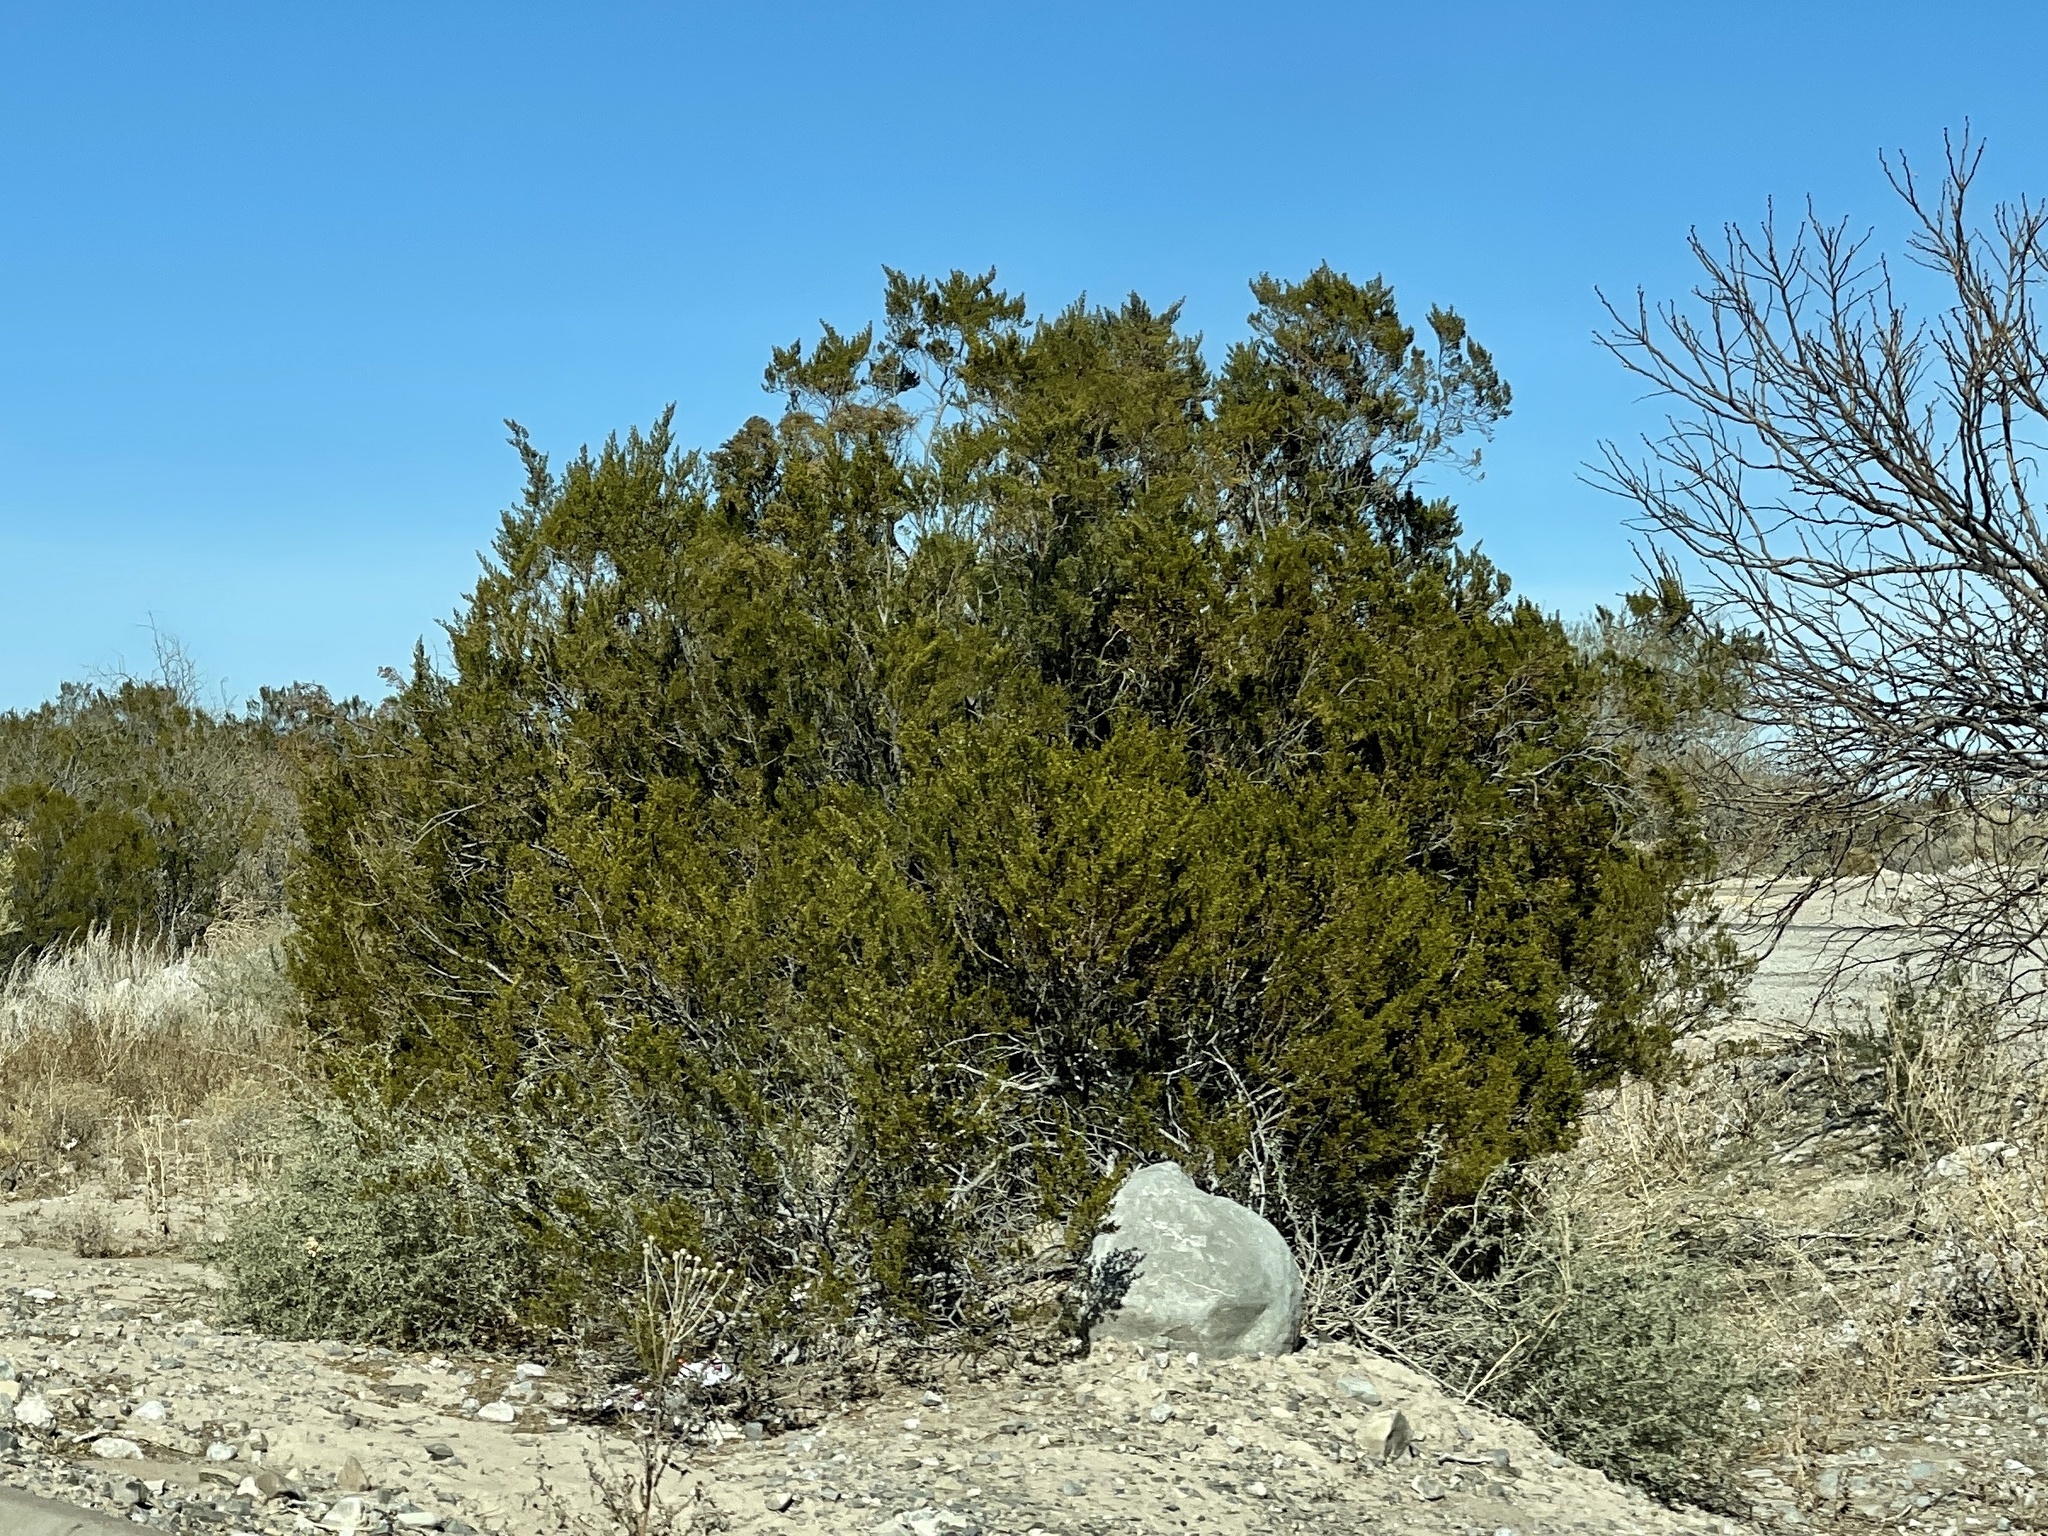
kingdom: Plantae
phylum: Tracheophyta
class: Magnoliopsida
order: Zygophyllales
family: Zygophyllaceae
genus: Larrea
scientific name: Larrea tridentata
